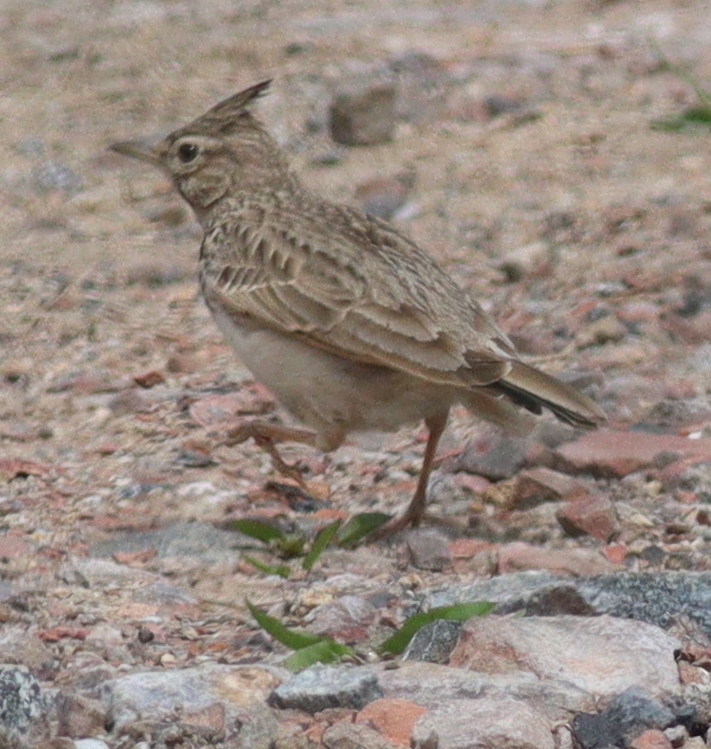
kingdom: Animalia
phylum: Chordata
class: Aves
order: Passeriformes
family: Alaudidae
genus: Galerida
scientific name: Galerida cristata
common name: Crested lark
